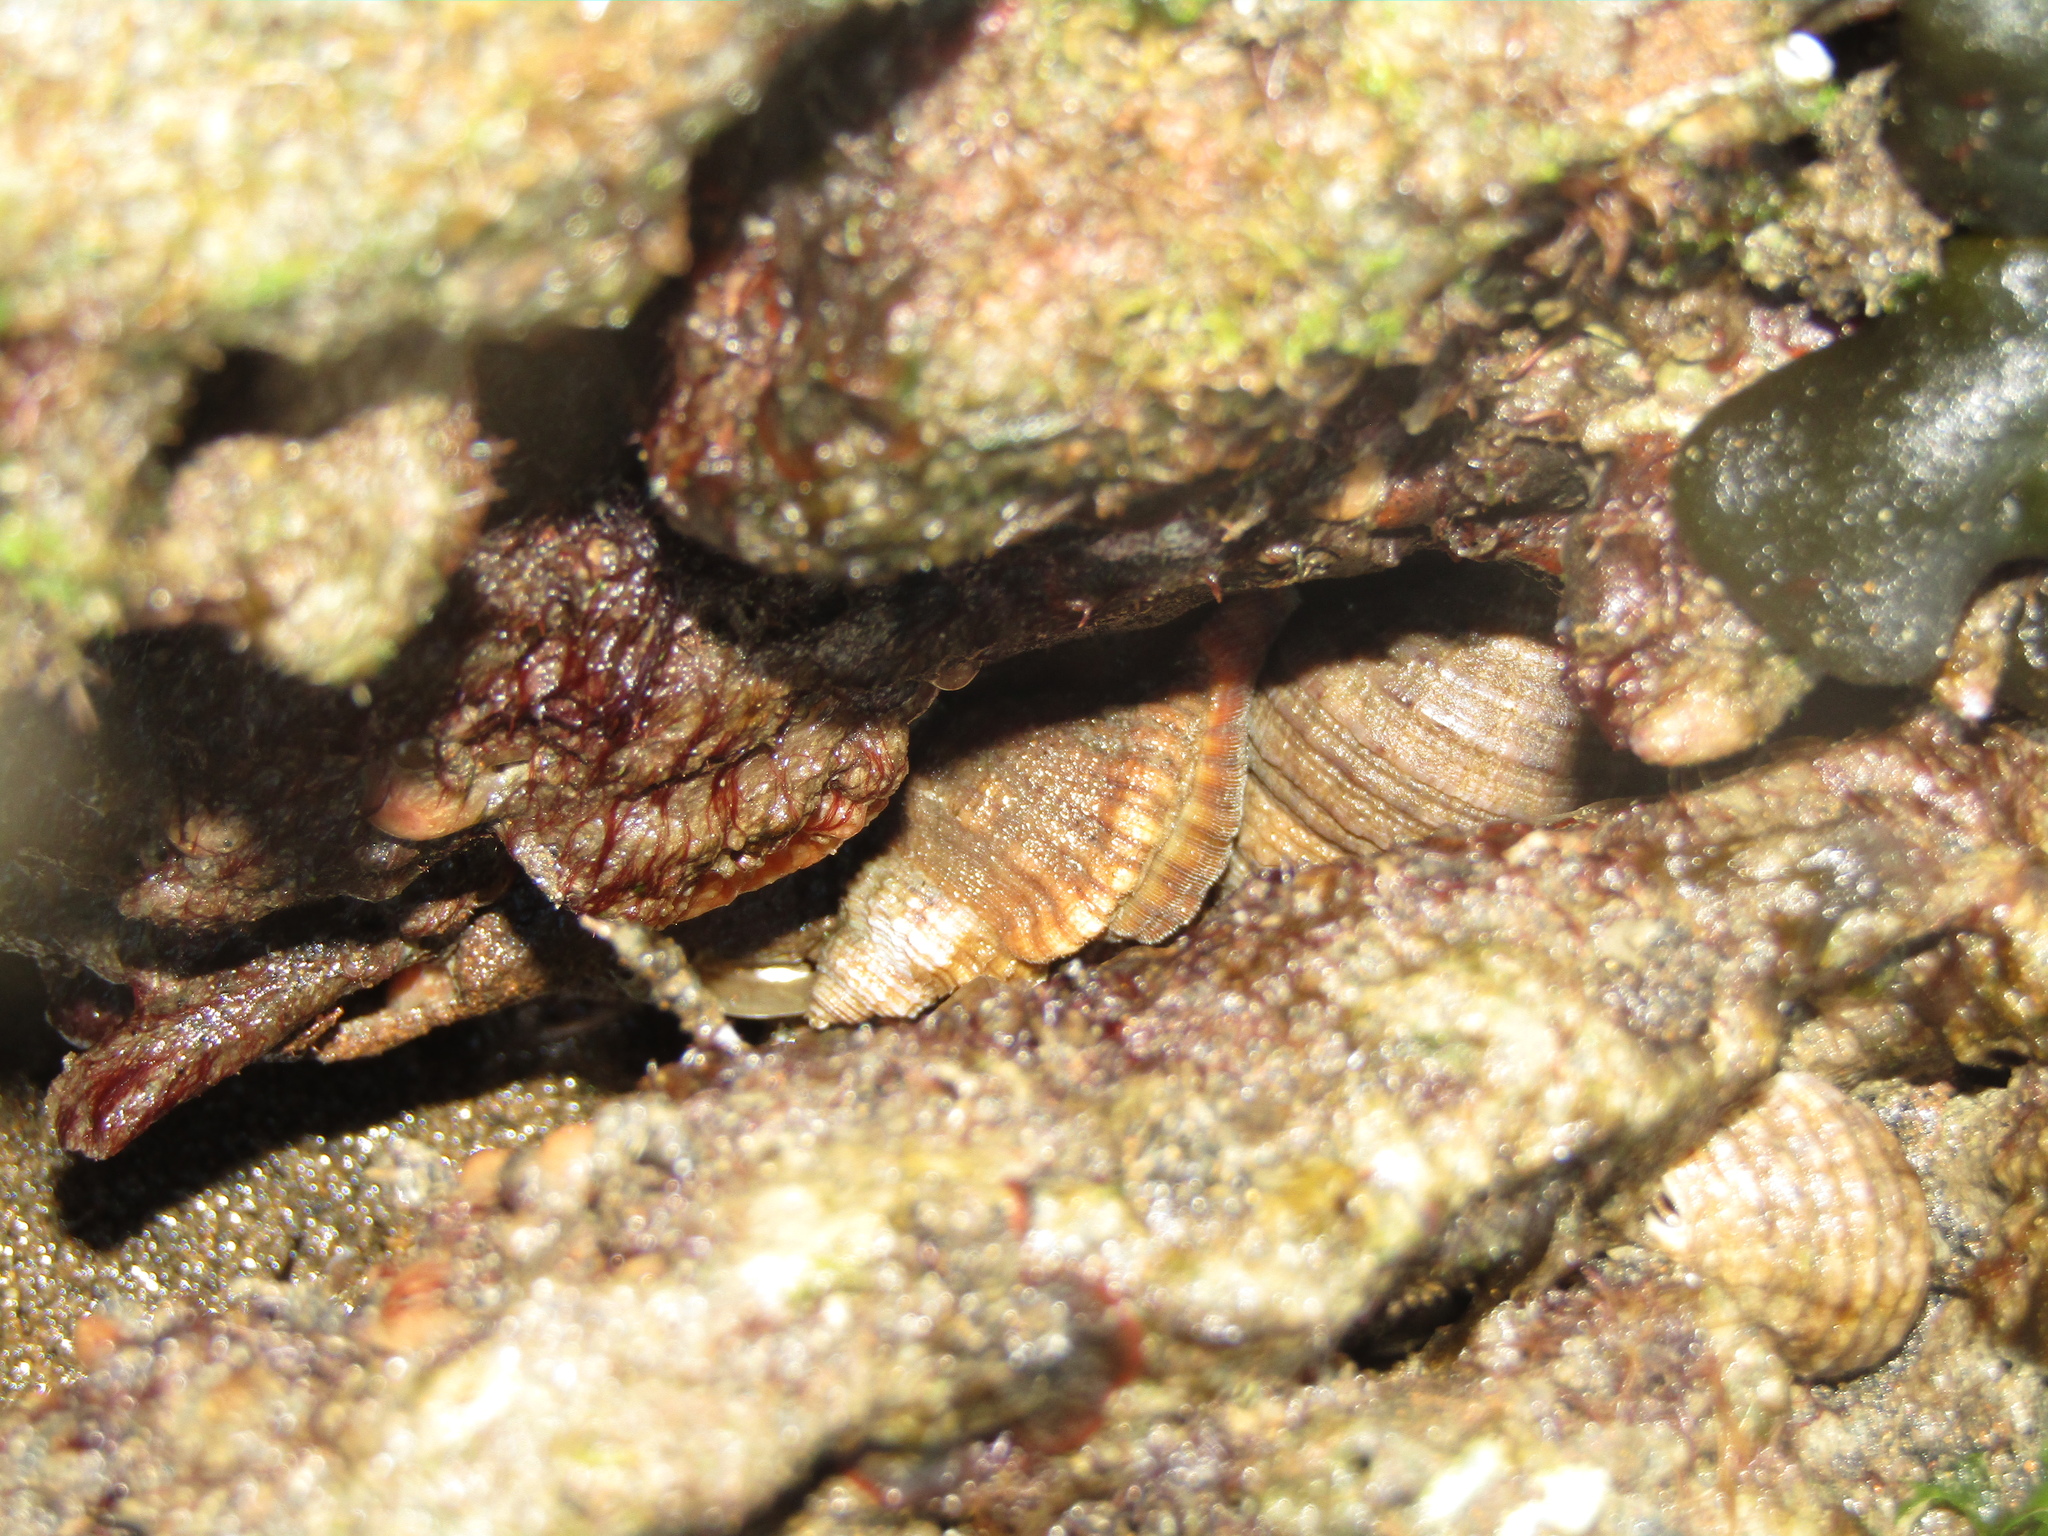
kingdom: Animalia
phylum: Mollusca
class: Gastropoda
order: Littorinimorpha
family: Cymatiidae
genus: Cabestana
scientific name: Cabestana spengleri
